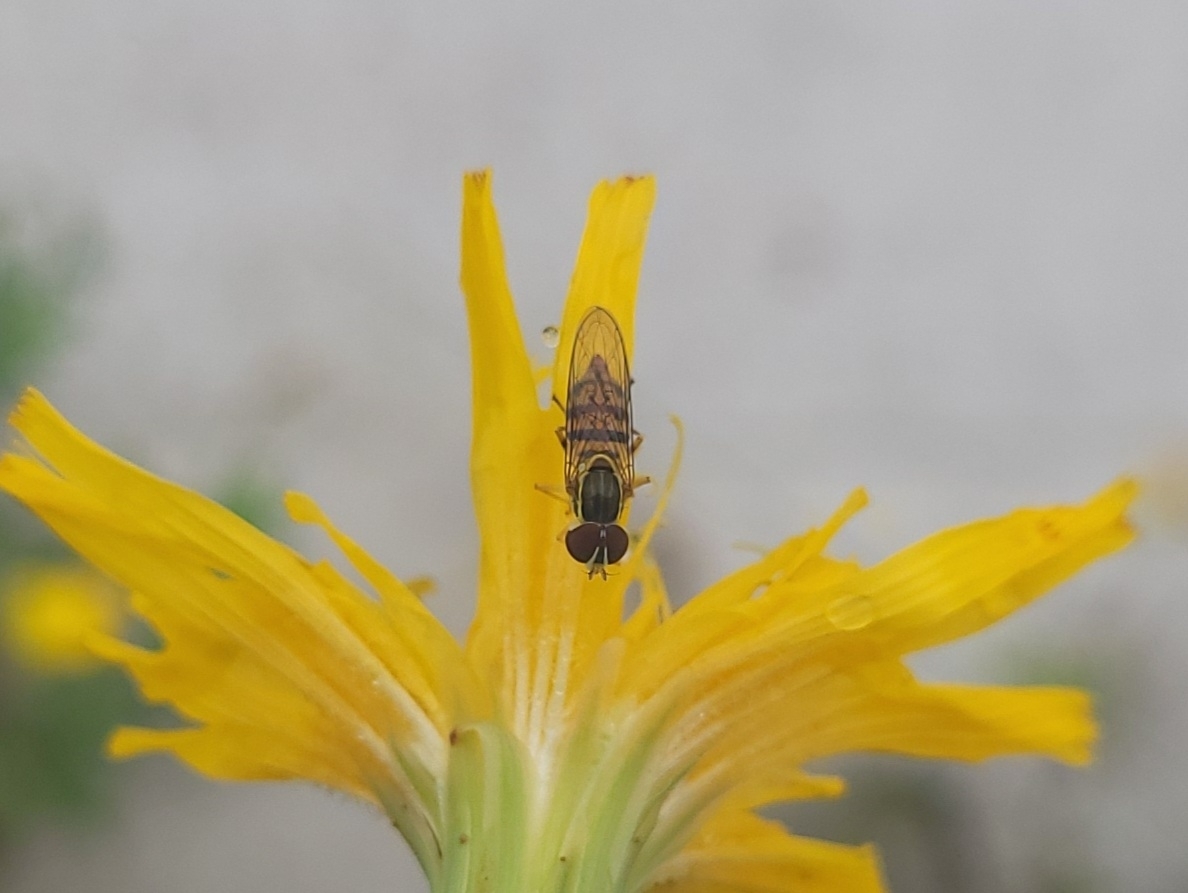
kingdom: Animalia
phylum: Arthropoda
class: Insecta
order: Diptera
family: Syrphidae
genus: Toxomerus
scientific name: Toxomerus geminatus
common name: Eastern calligrapher
